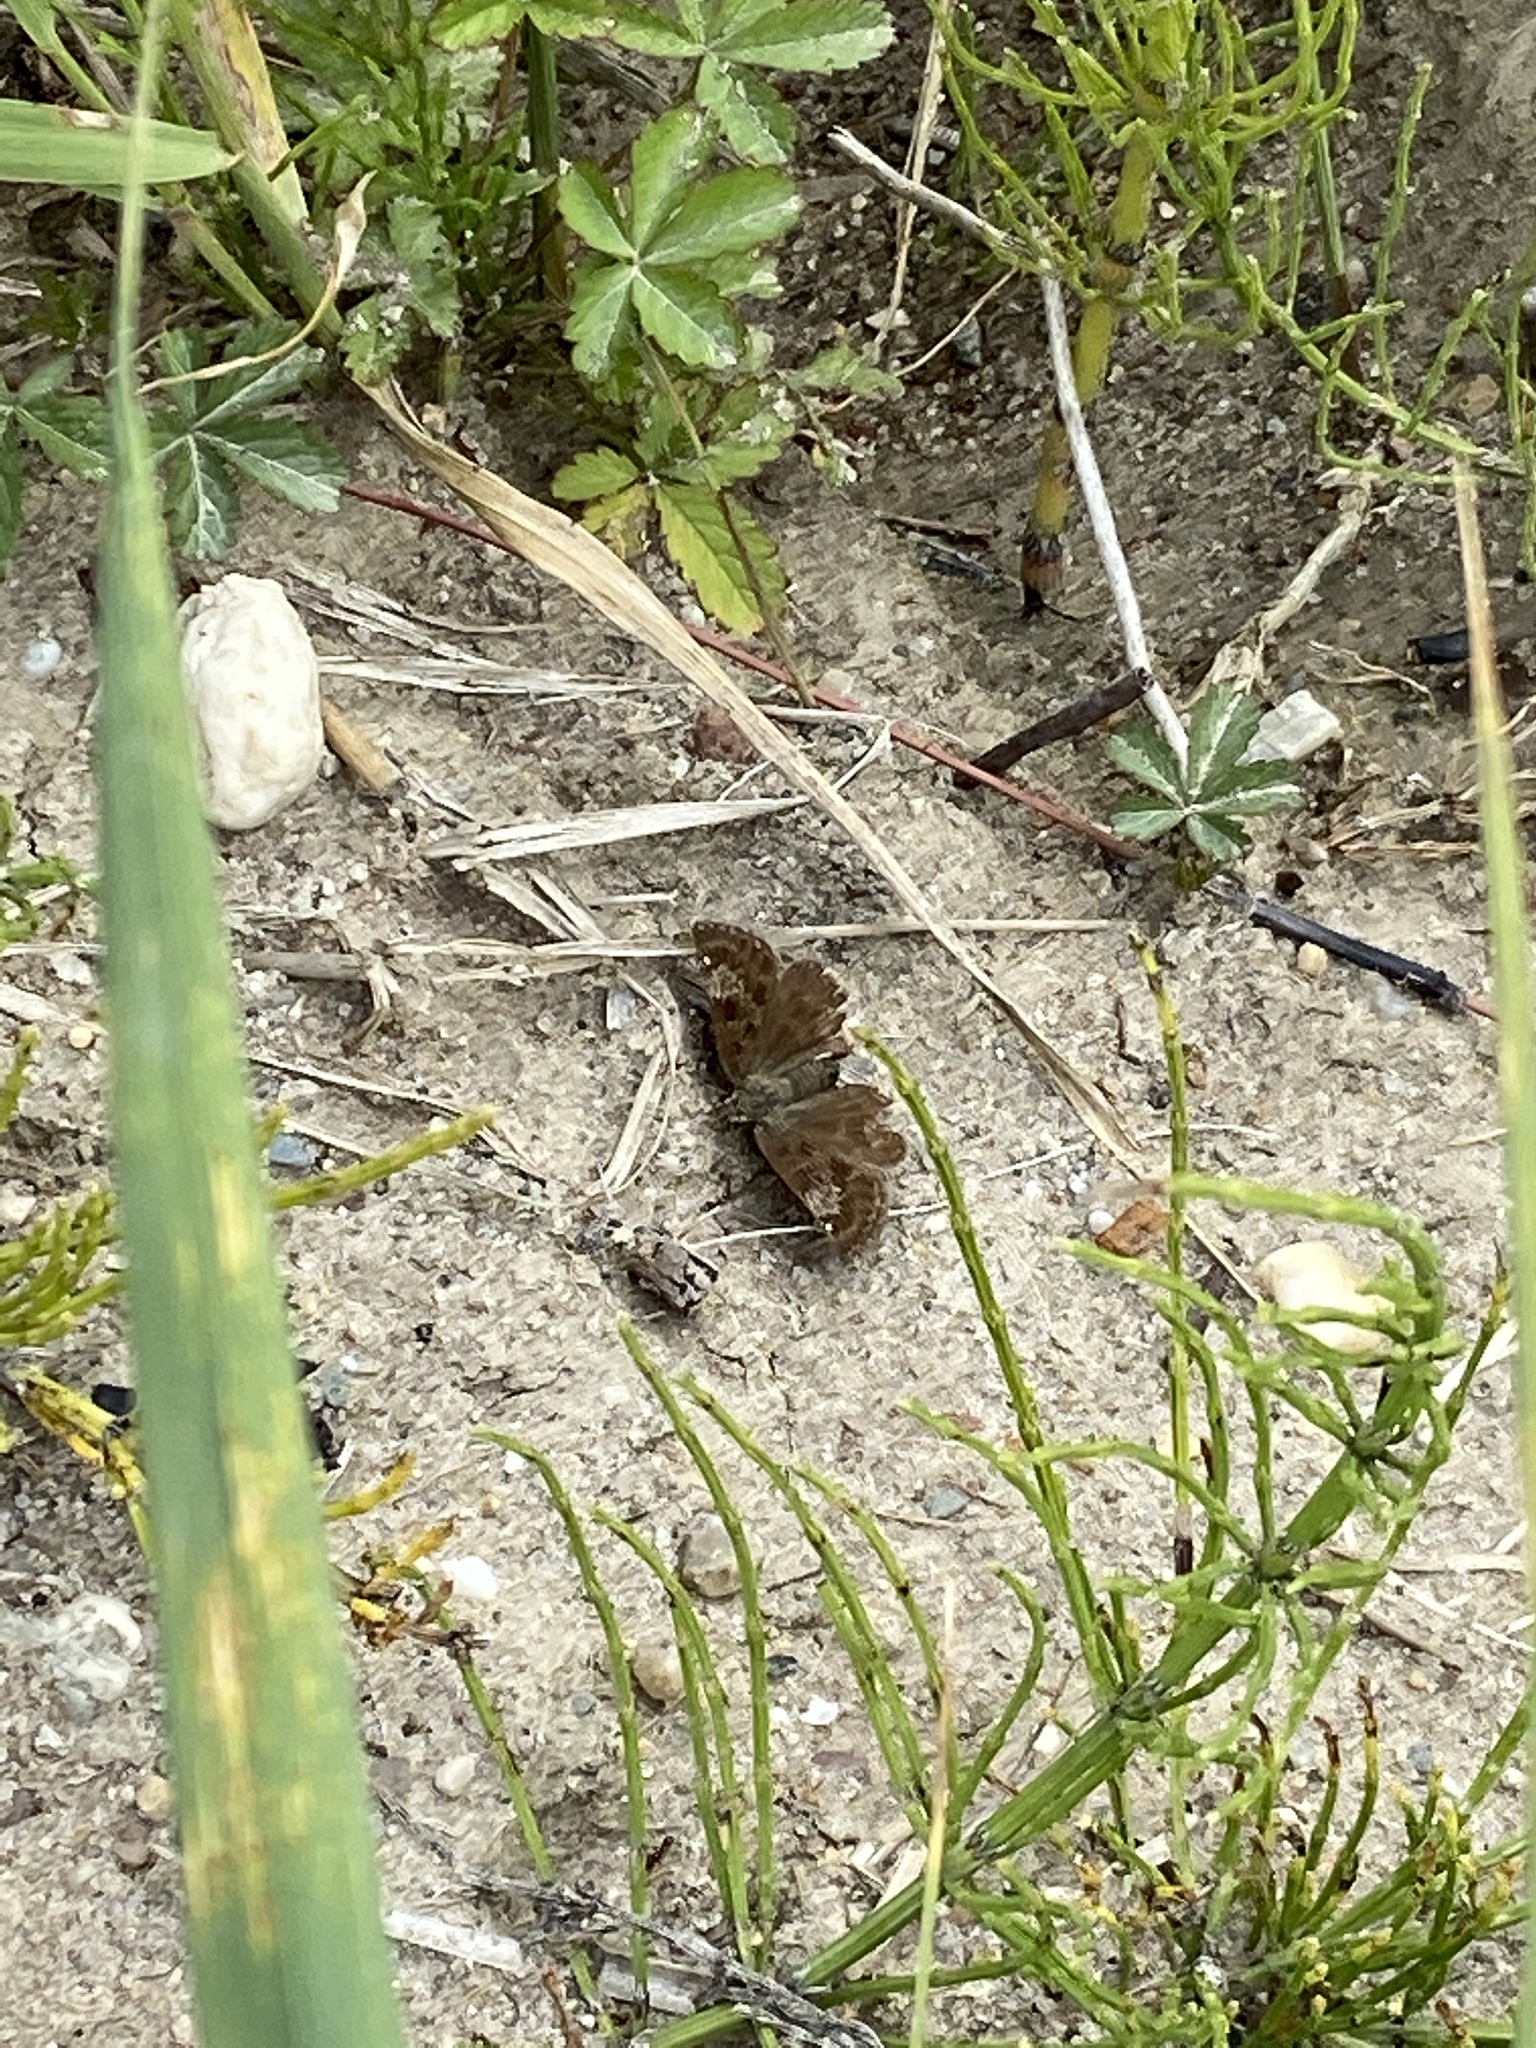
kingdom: Animalia
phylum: Arthropoda
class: Insecta
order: Lepidoptera
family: Hesperiidae
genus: Erynnis
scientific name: Erynnis tages
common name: Dingy skipper
